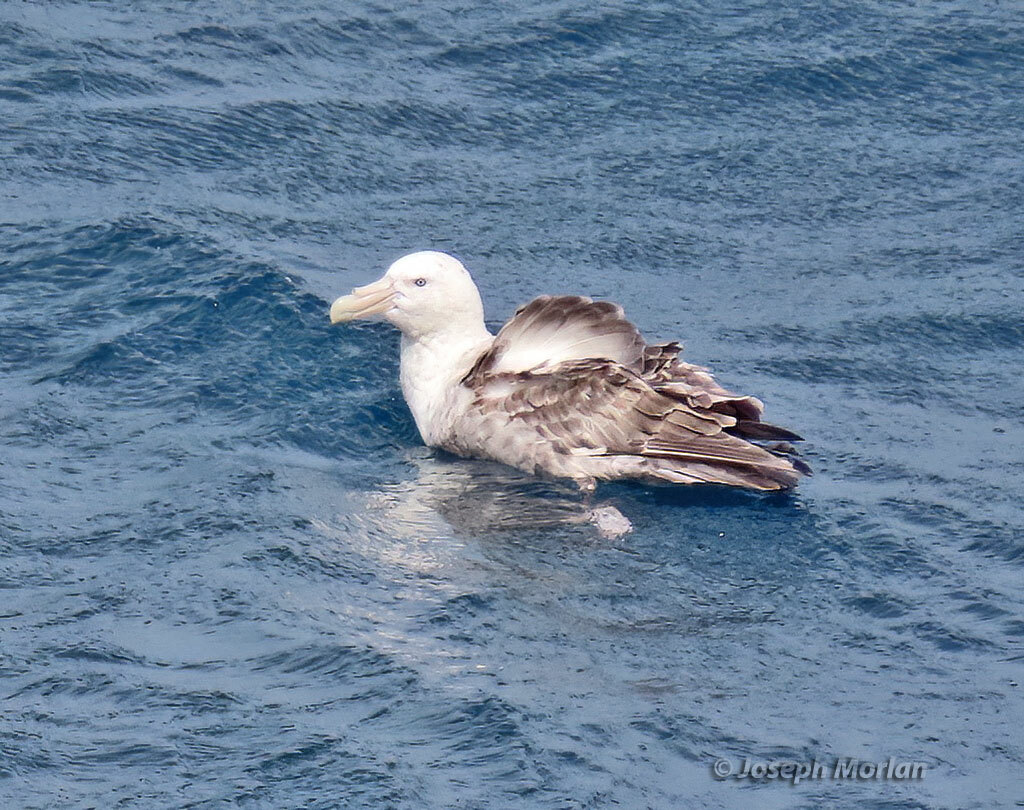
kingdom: Animalia
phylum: Chordata
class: Aves
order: Procellariiformes
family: Procellariidae
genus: Macronectes
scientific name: Macronectes giganteus
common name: Southern giant petrel
